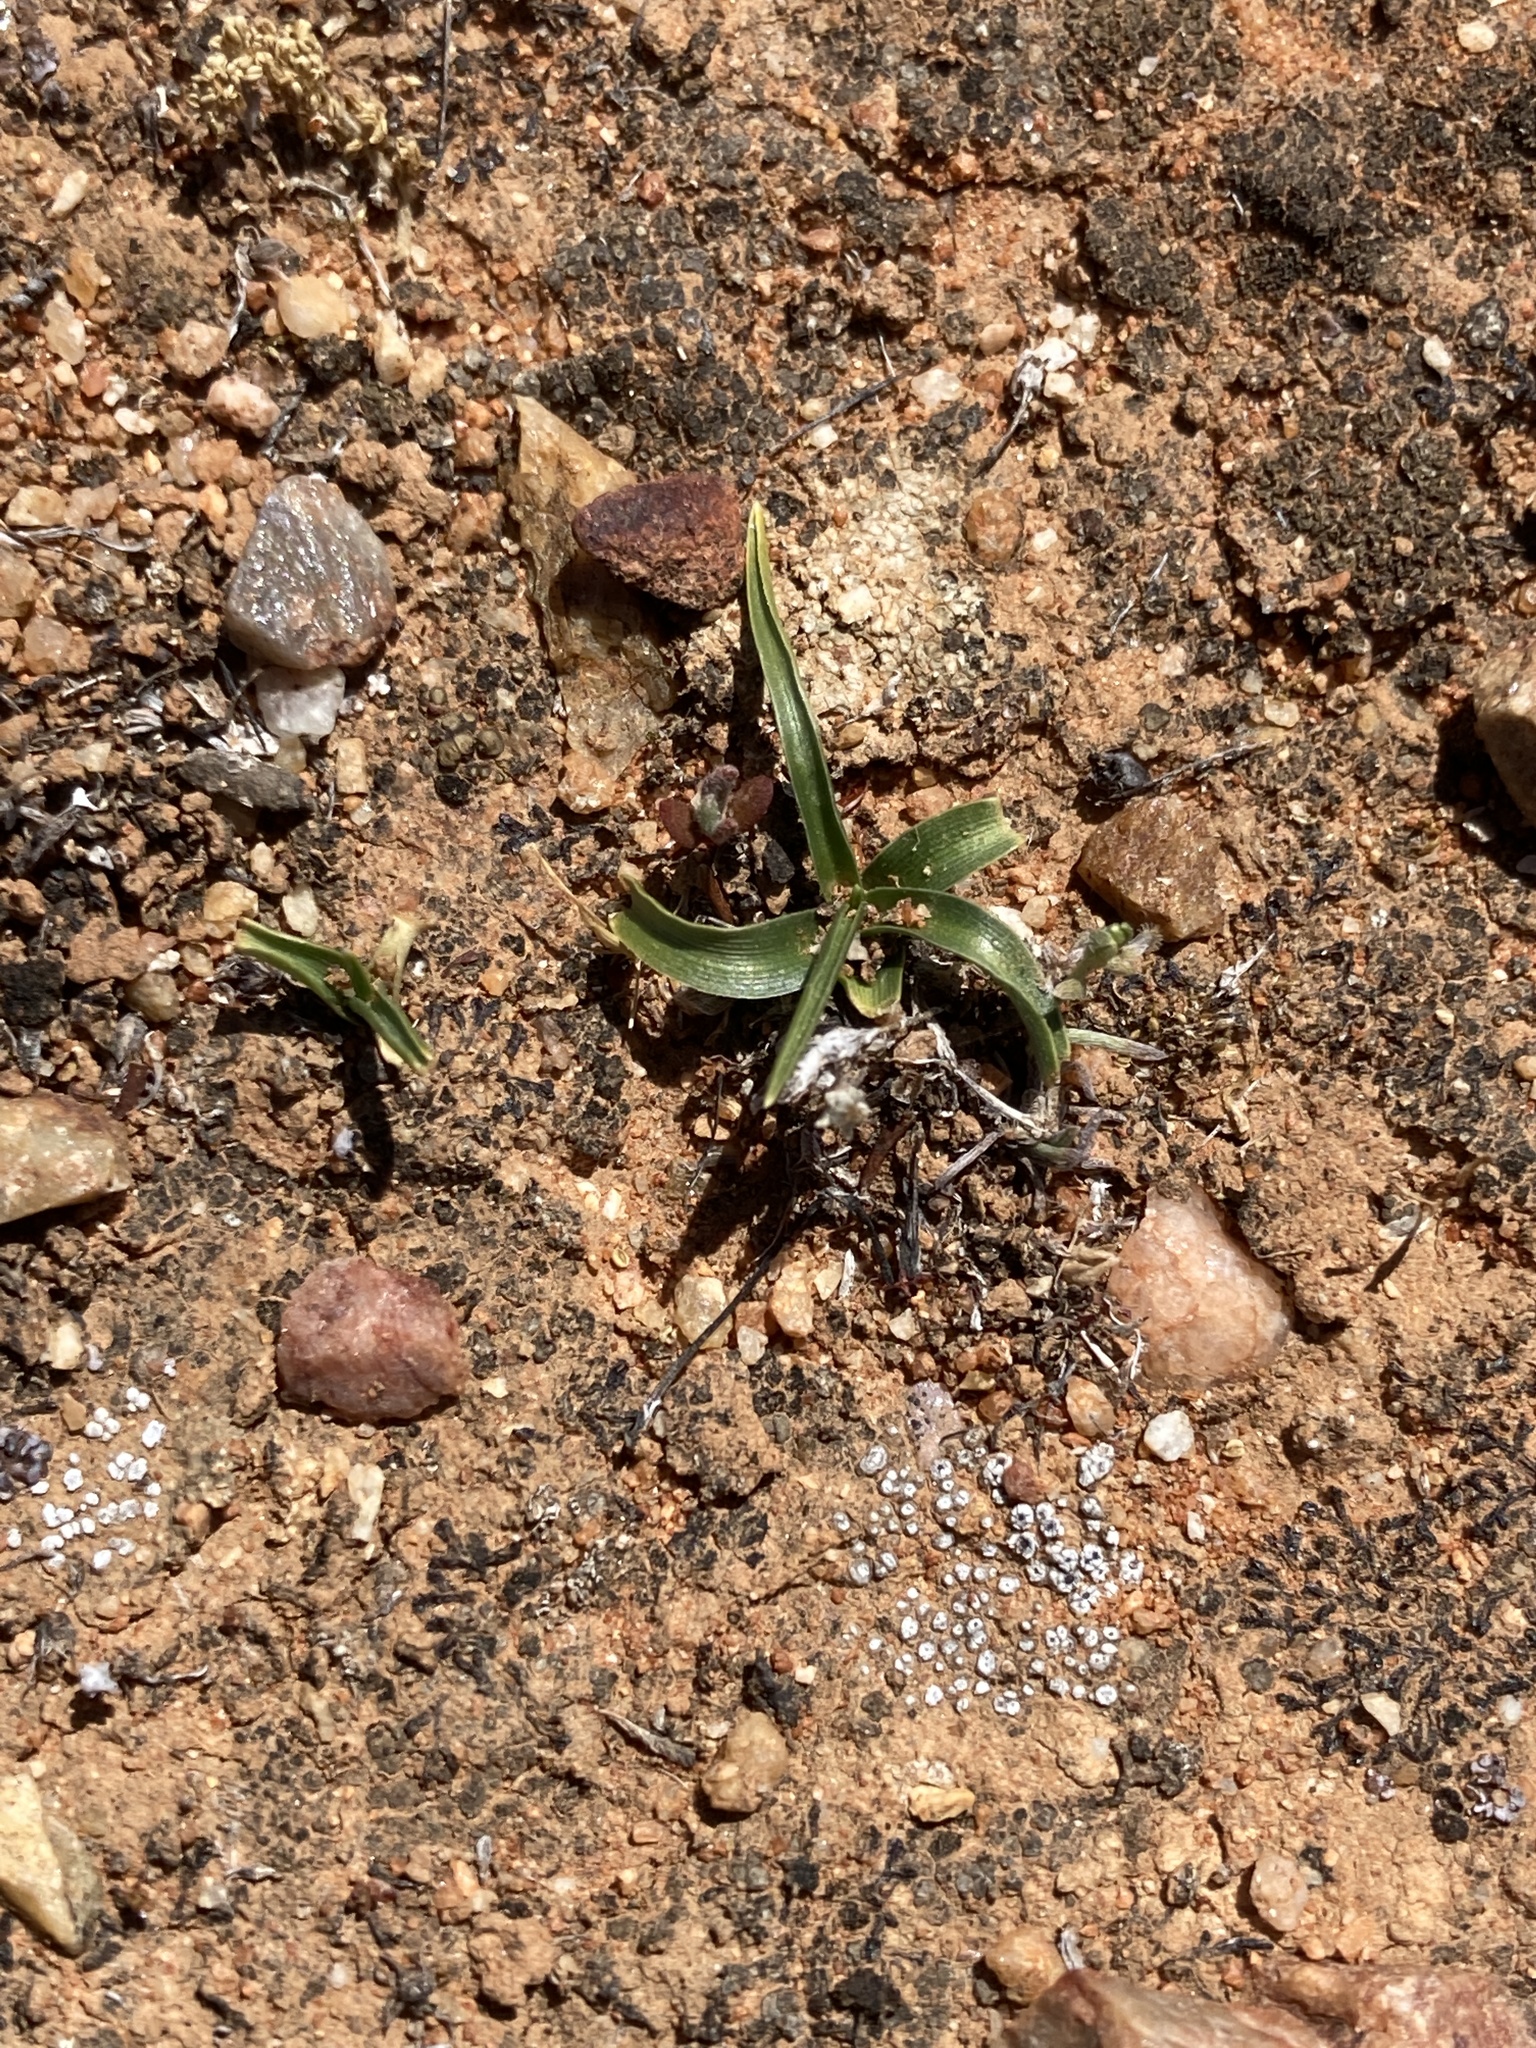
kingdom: Plantae
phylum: Tracheophyta
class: Liliopsida
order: Asparagales
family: Asparagaceae
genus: Hooveria
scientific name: Hooveria purpurea
